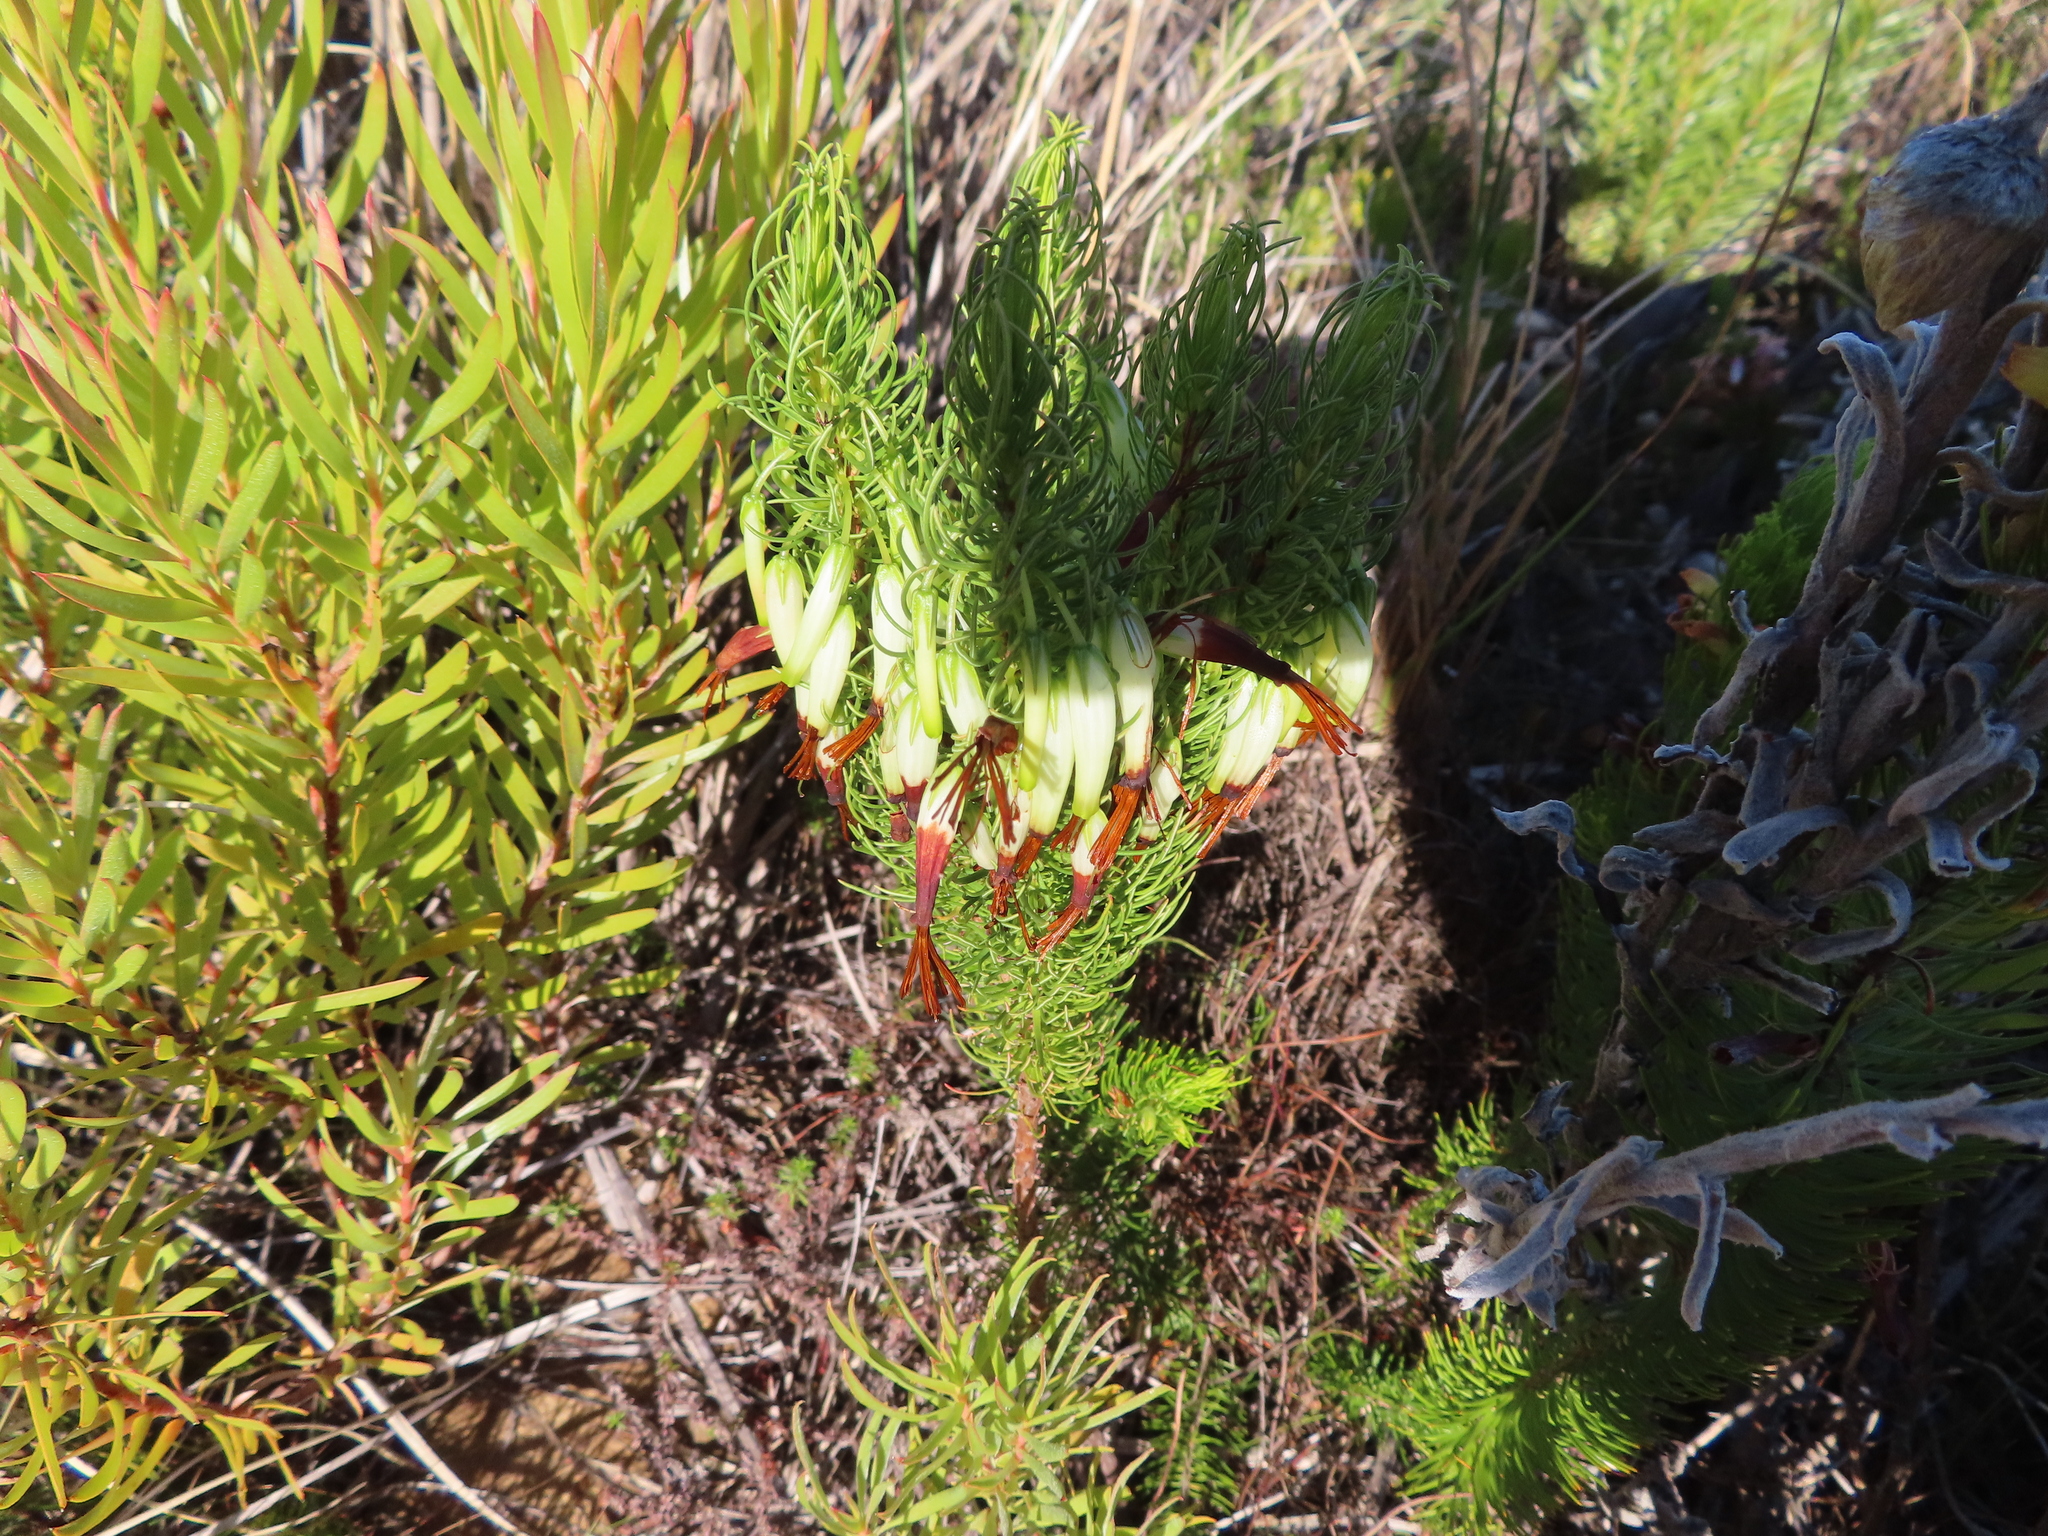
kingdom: Plantae
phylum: Tracheophyta
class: Magnoliopsida
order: Ericales
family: Ericaceae
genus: Erica
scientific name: Erica plukenetii
